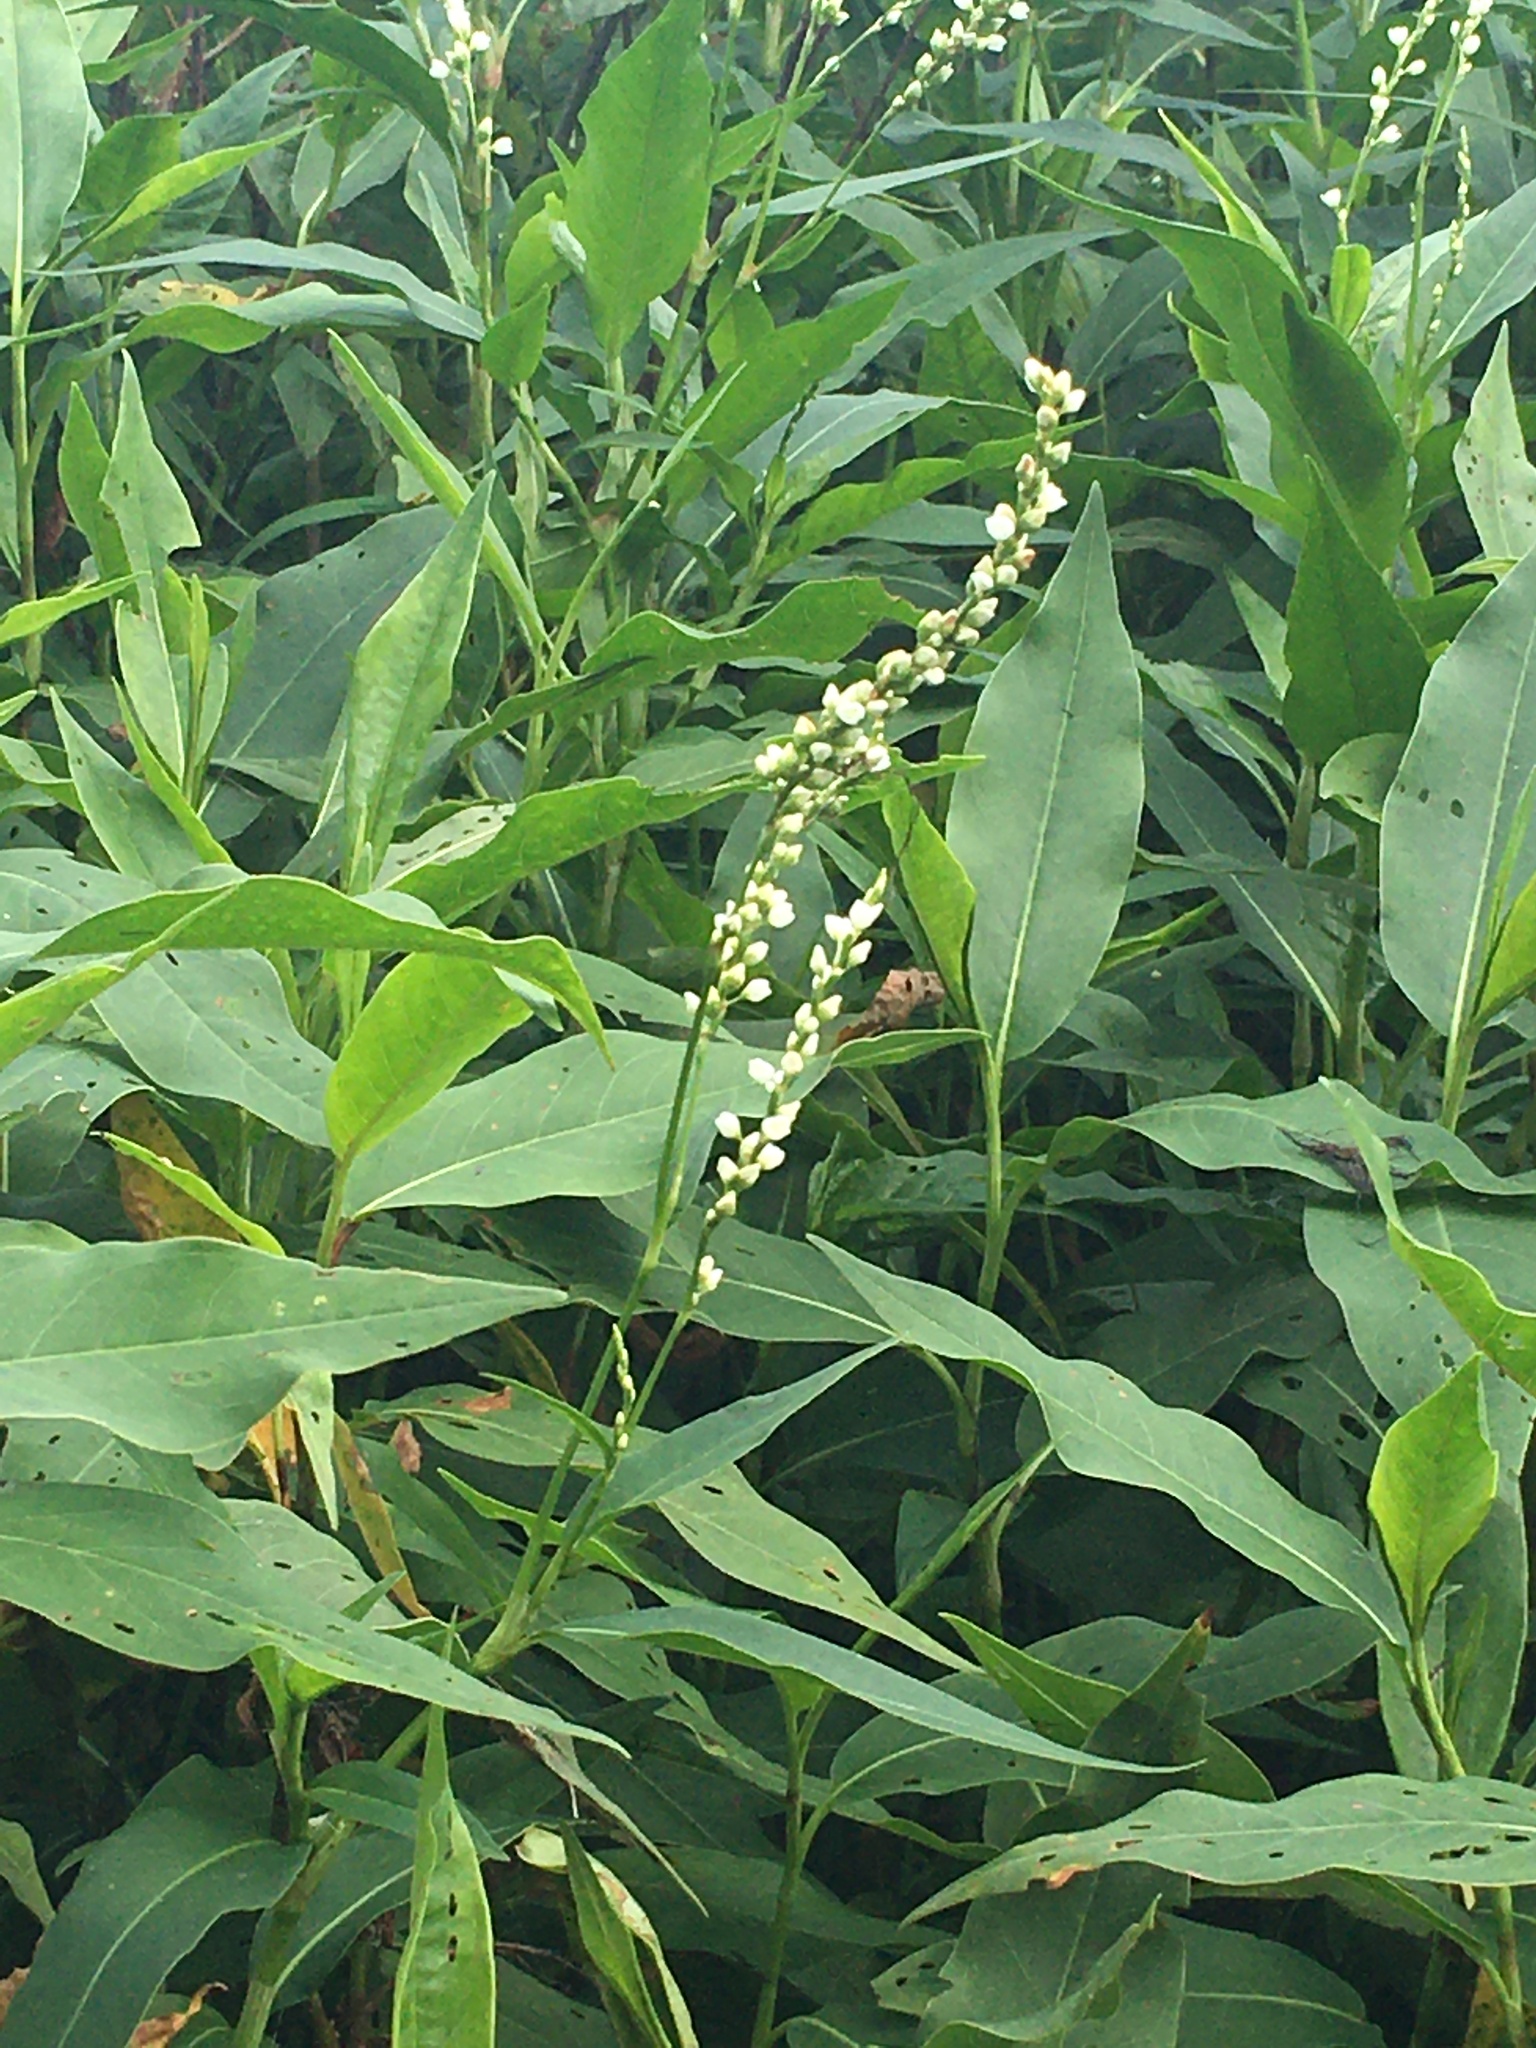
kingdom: Plantae
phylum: Tracheophyta
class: Magnoliopsida
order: Caryophyllales
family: Polygonaceae
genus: Persicaria
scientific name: Persicaria robustior
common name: Stout smartweed
